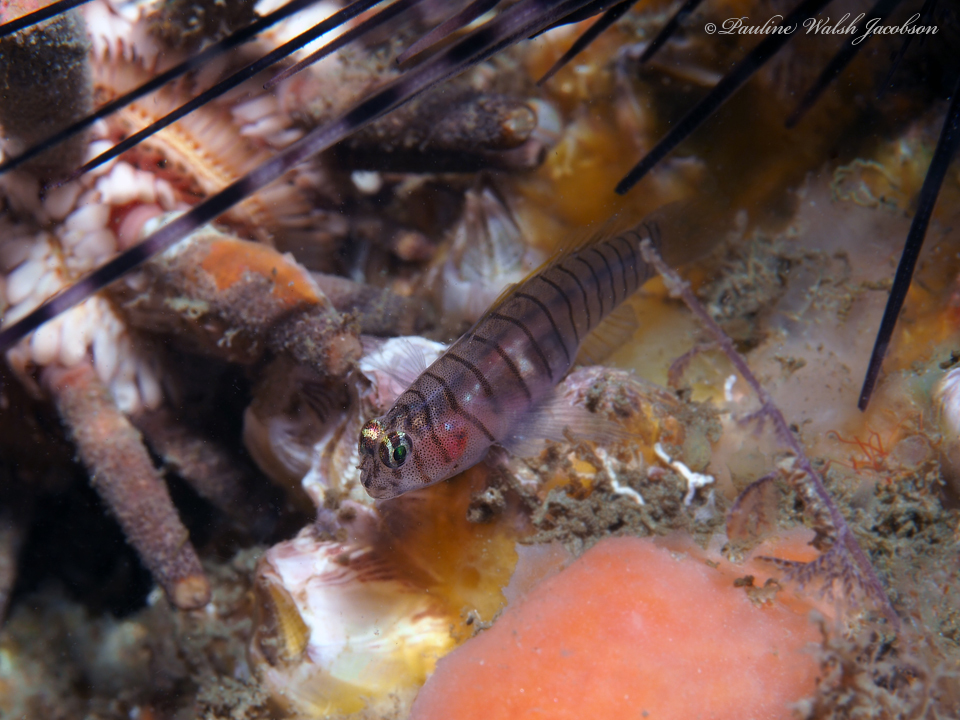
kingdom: Animalia
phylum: Chordata
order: Perciformes
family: Gobiidae
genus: Tigrigobius
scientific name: Tigrigobius macrodon
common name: Tiger goby
